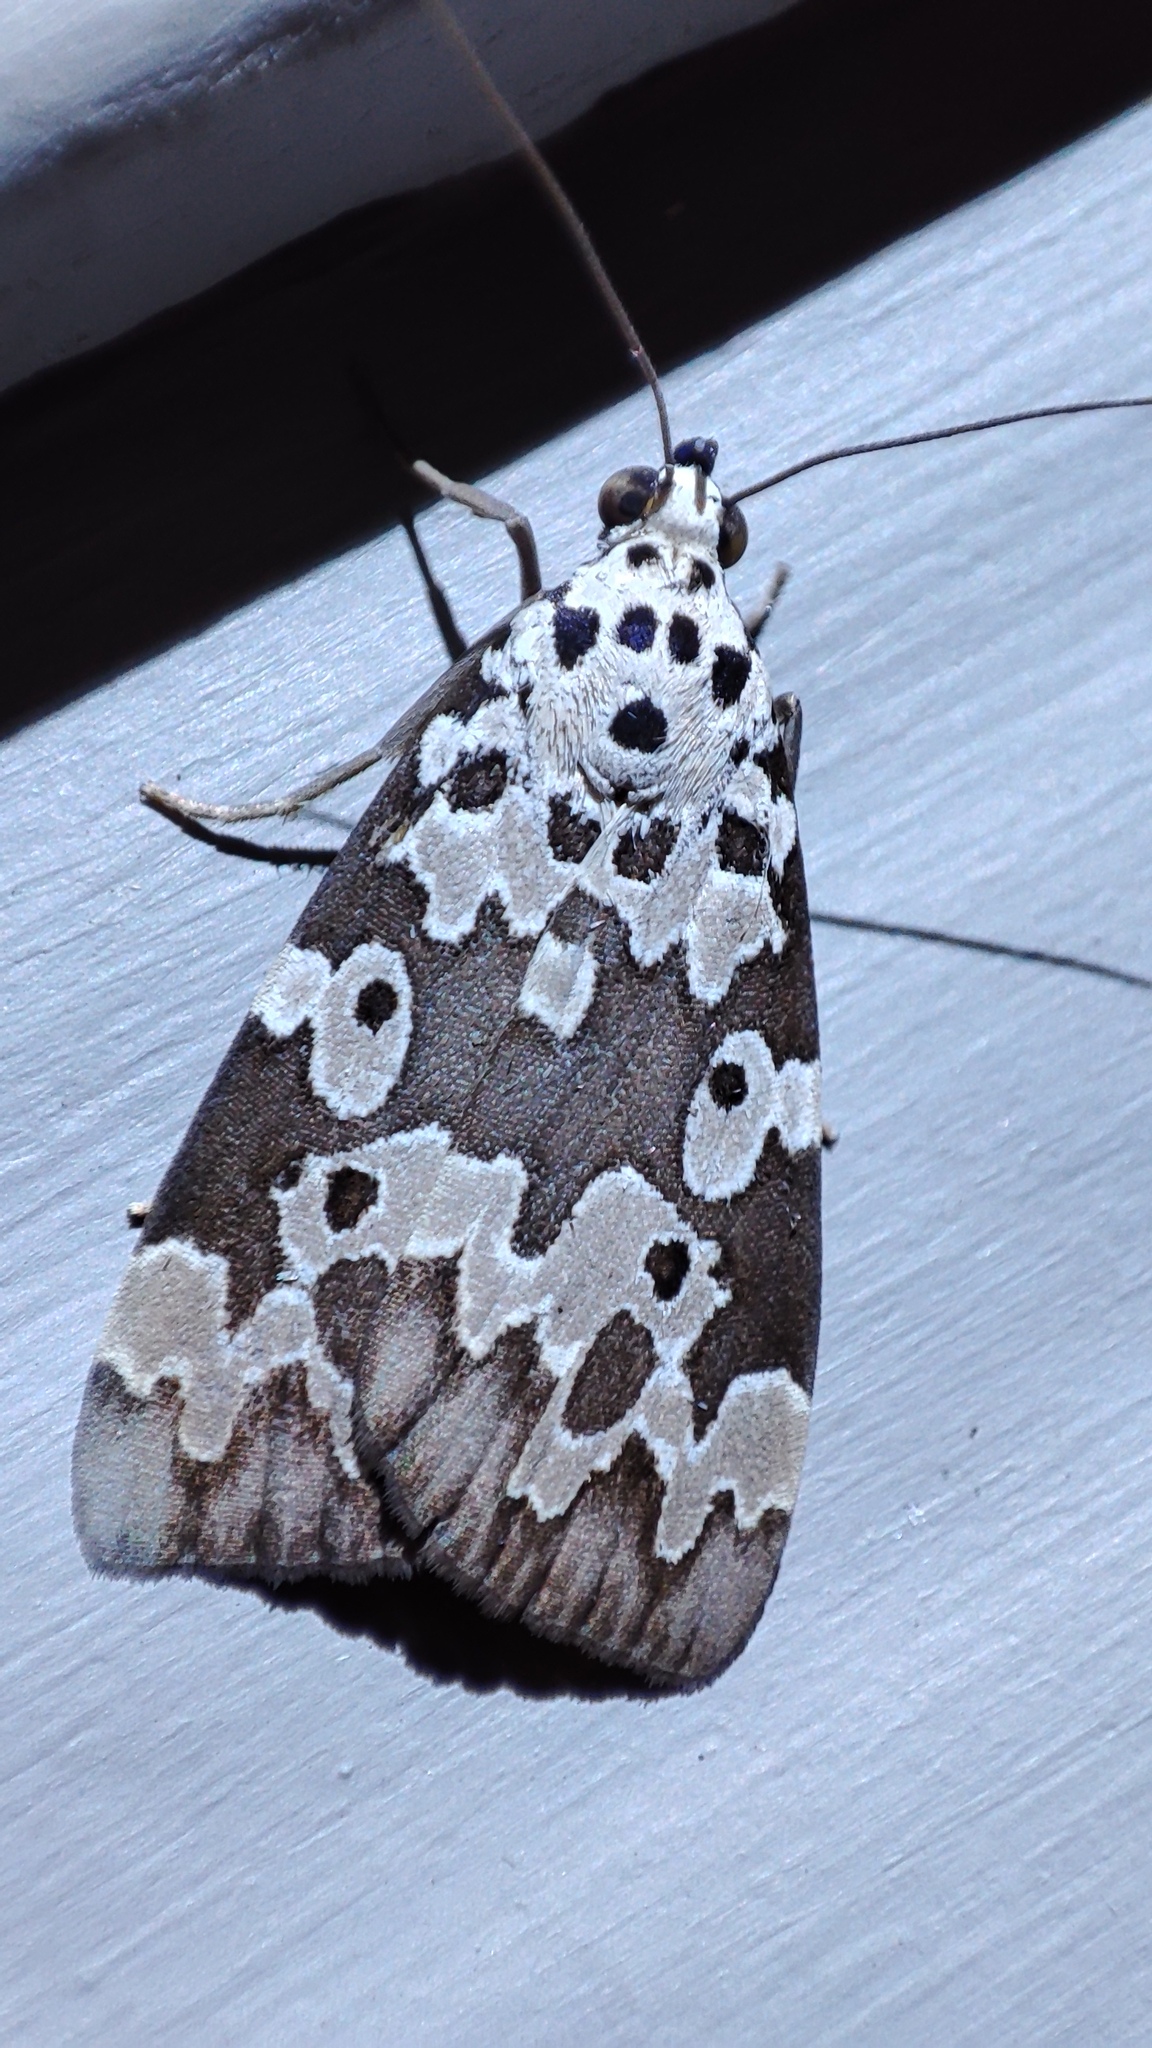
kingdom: Animalia
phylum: Arthropoda
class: Insecta
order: Lepidoptera
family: Erebidae
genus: Digama
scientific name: Digama Sommeria culta
